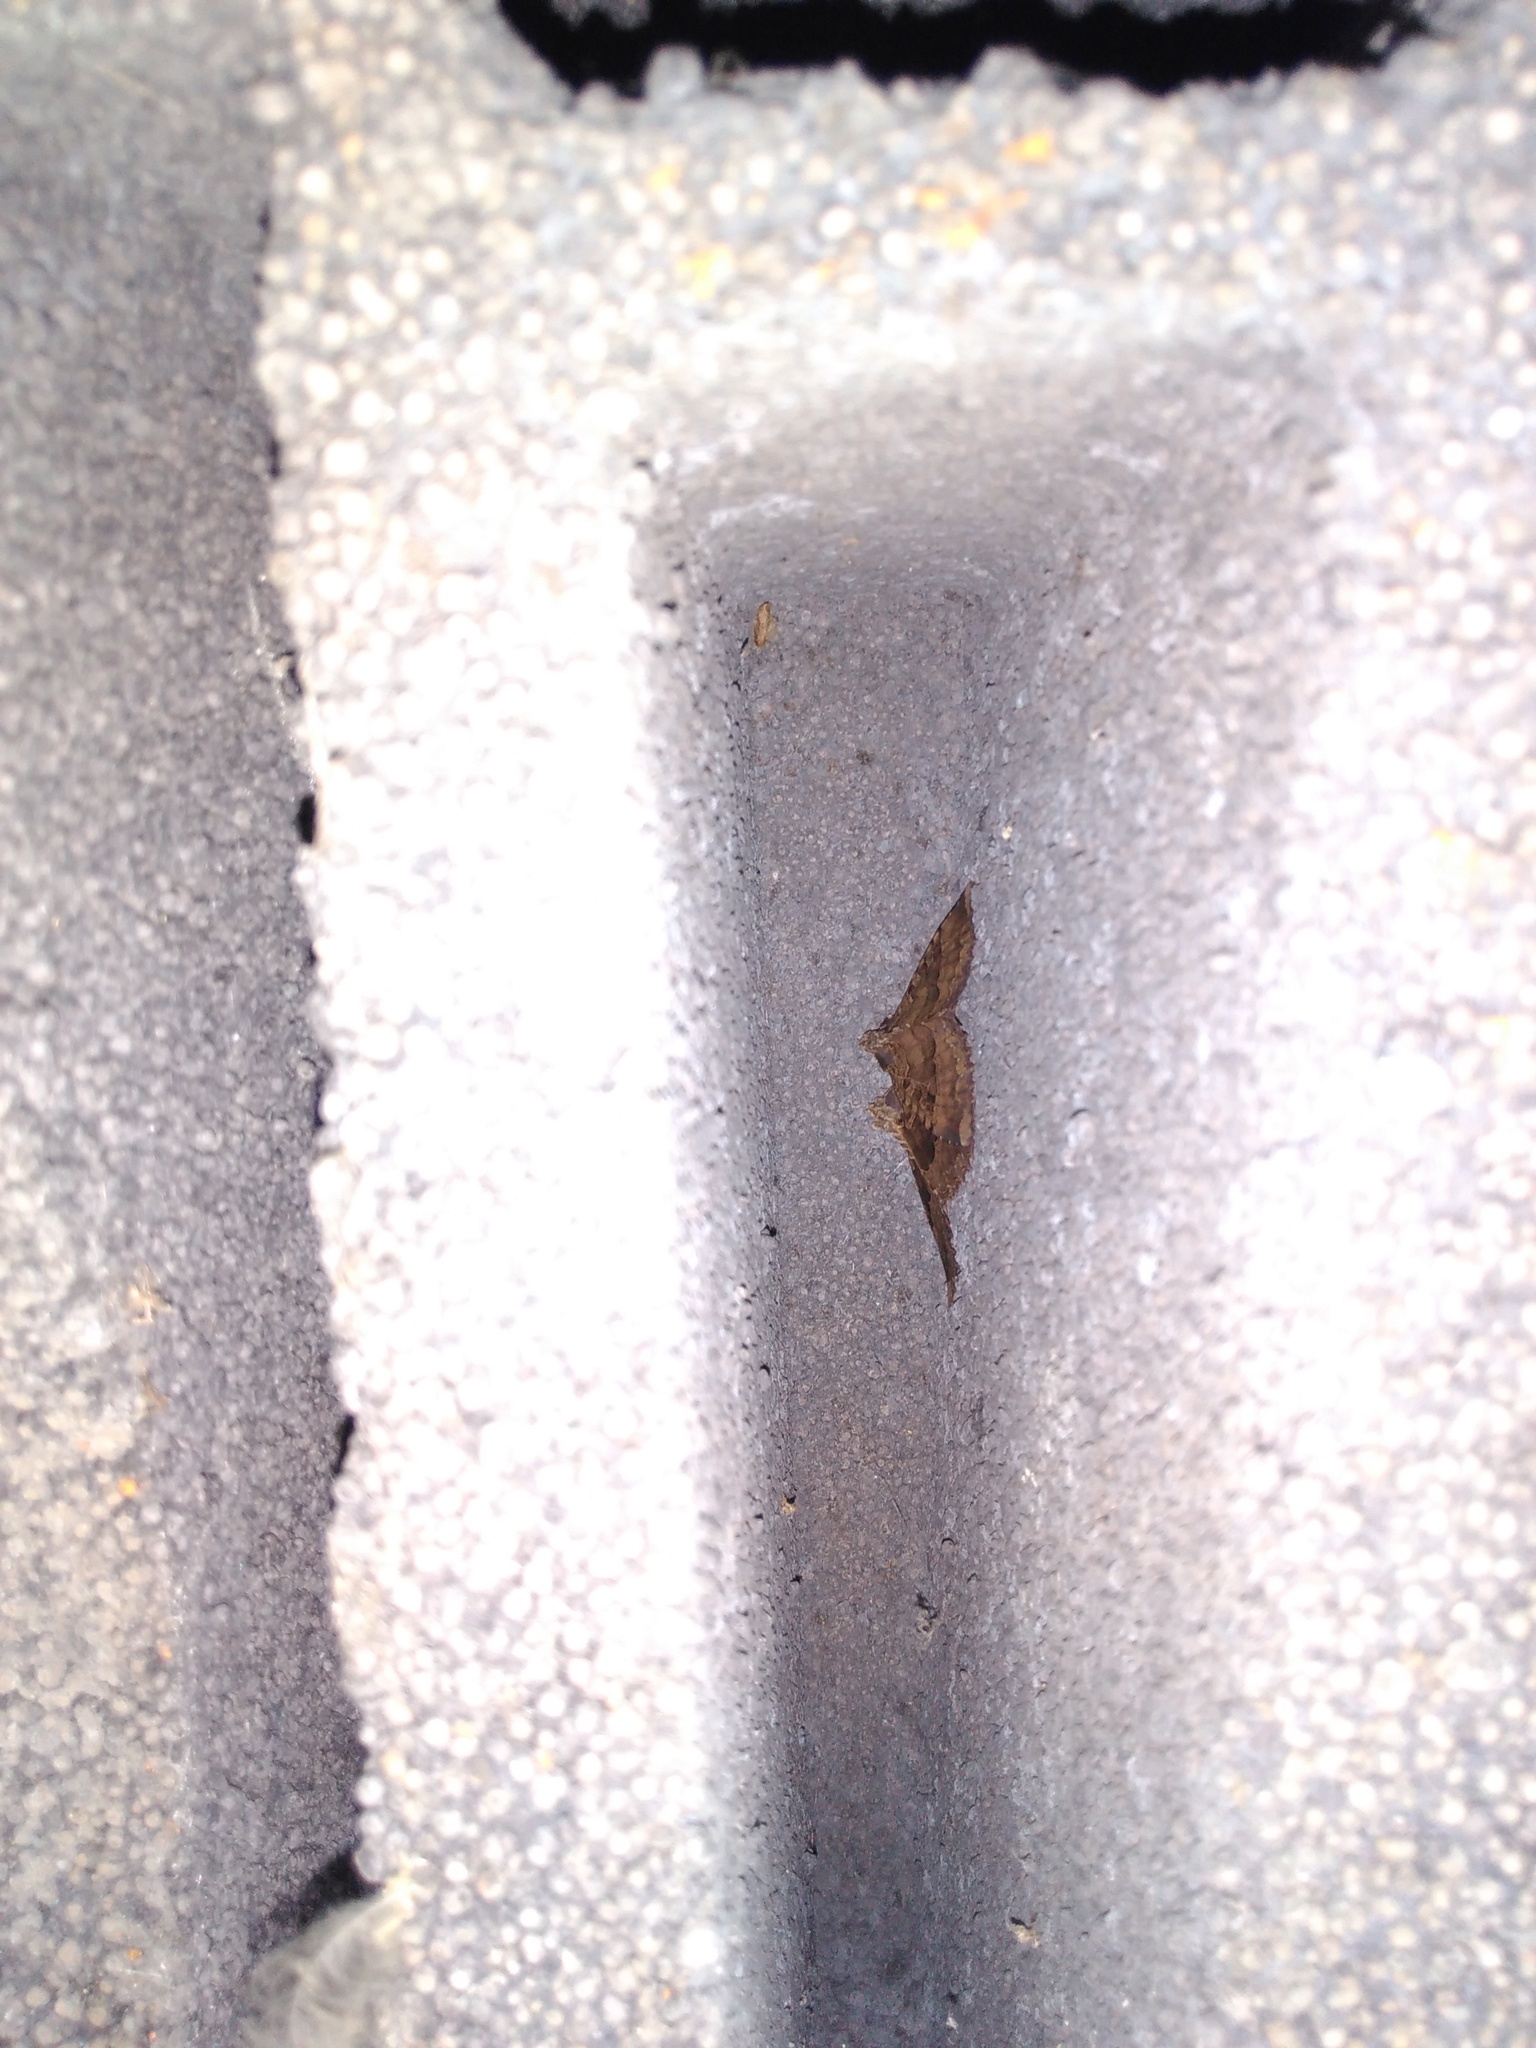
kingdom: Animalia
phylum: Arthropoda
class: Insecta
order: Lepidoptera
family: Noctuidae
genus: Mormo
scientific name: Mormo maura
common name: Old lady
